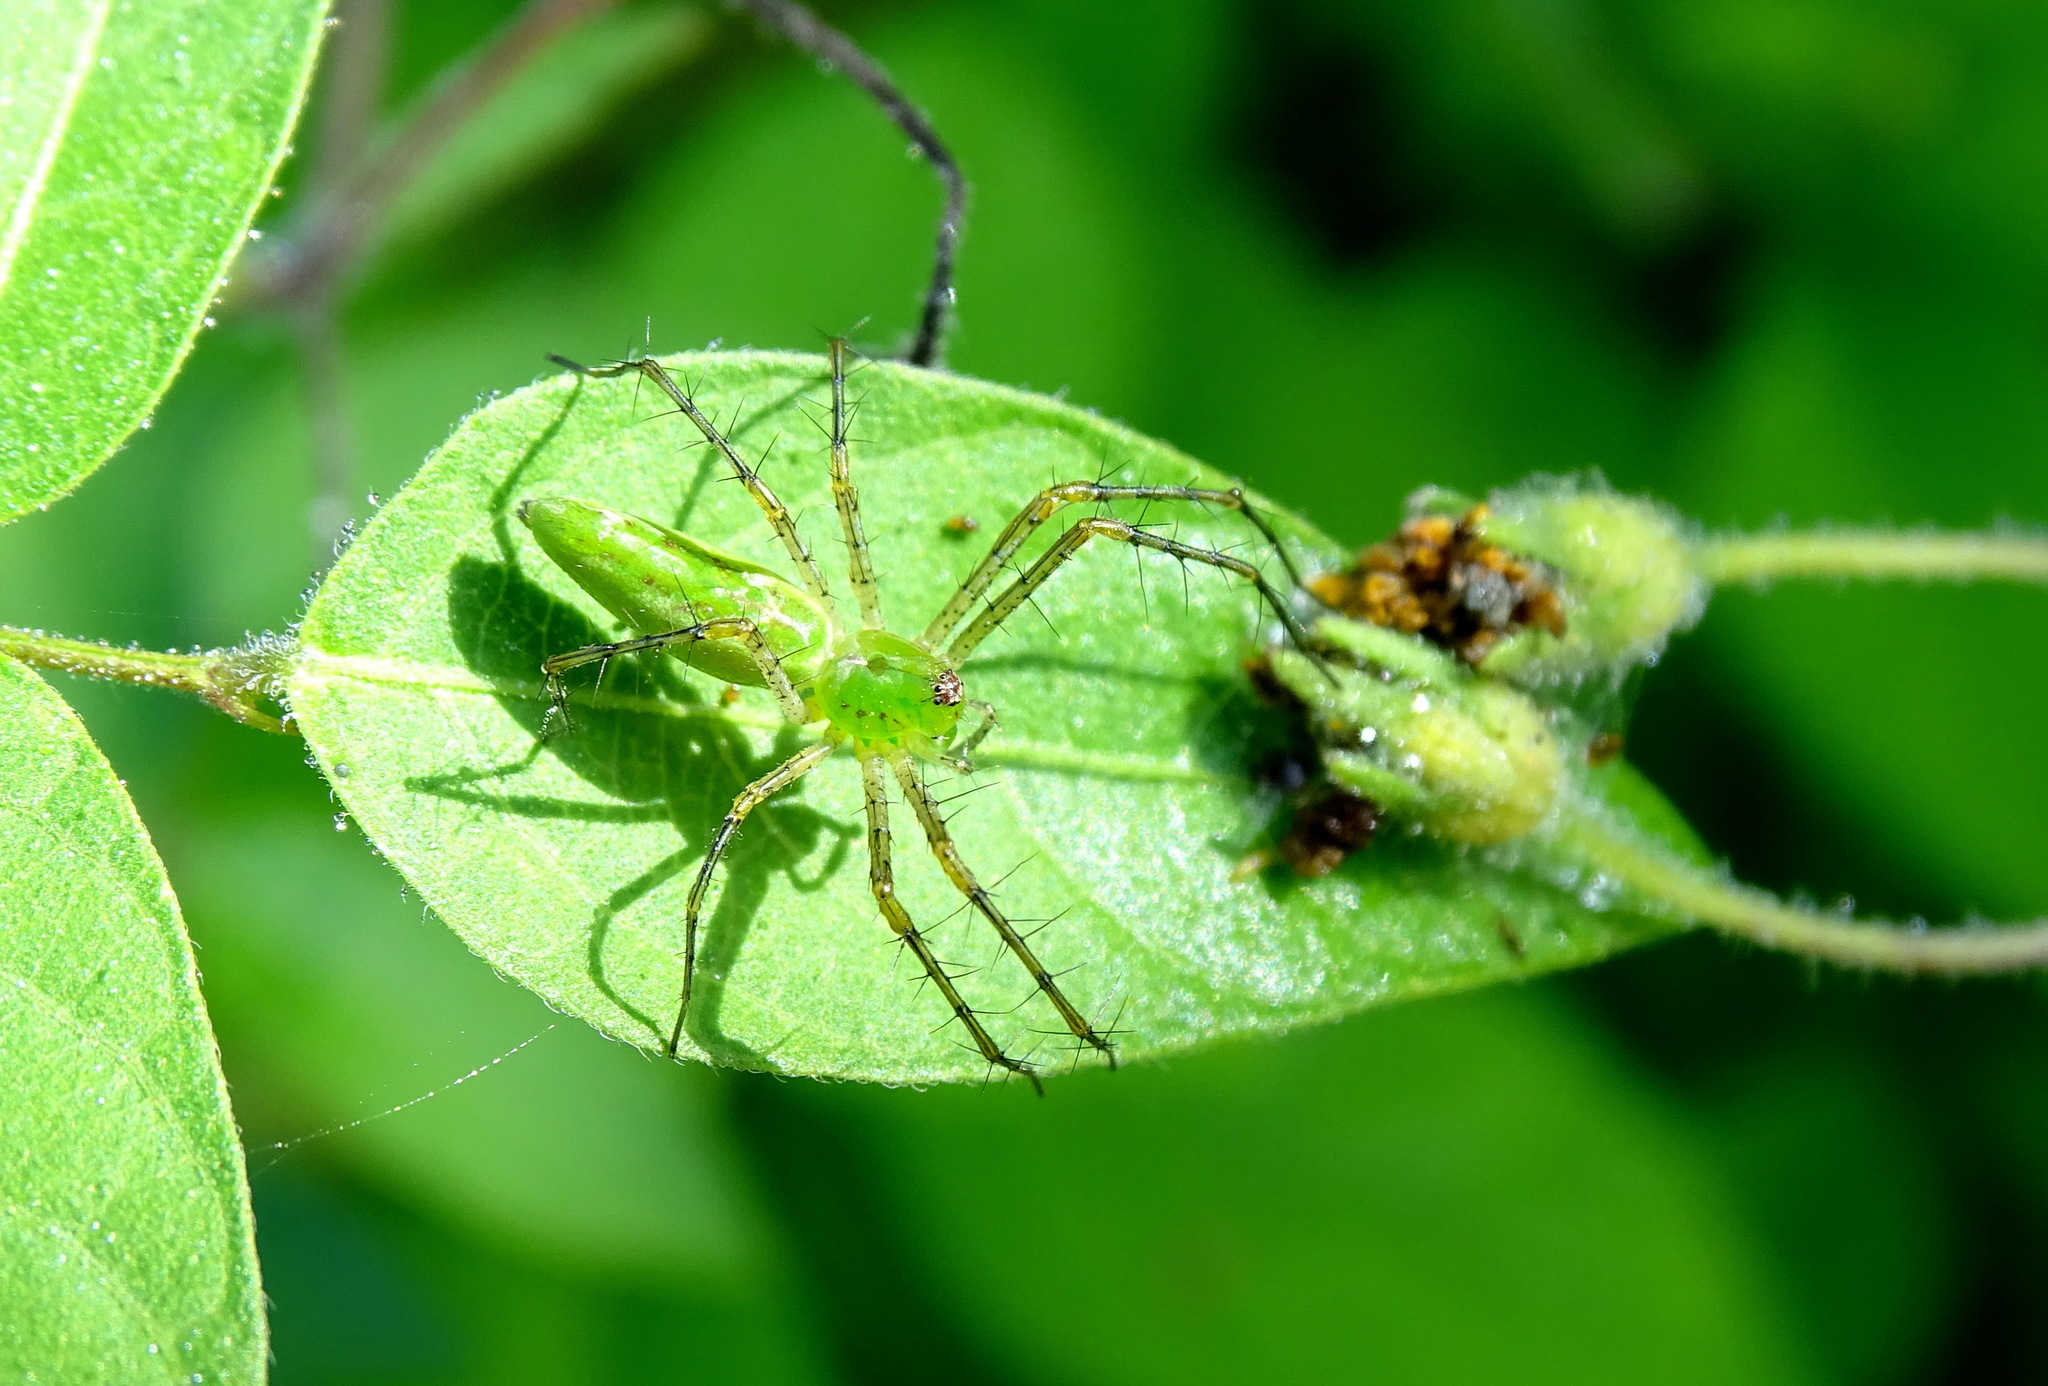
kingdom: Animalia
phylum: Arthropoda
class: Arachnida
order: Araneae
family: Oxyopidae
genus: Peucetia
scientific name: Peucetia viridans
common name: Lynx spiders
